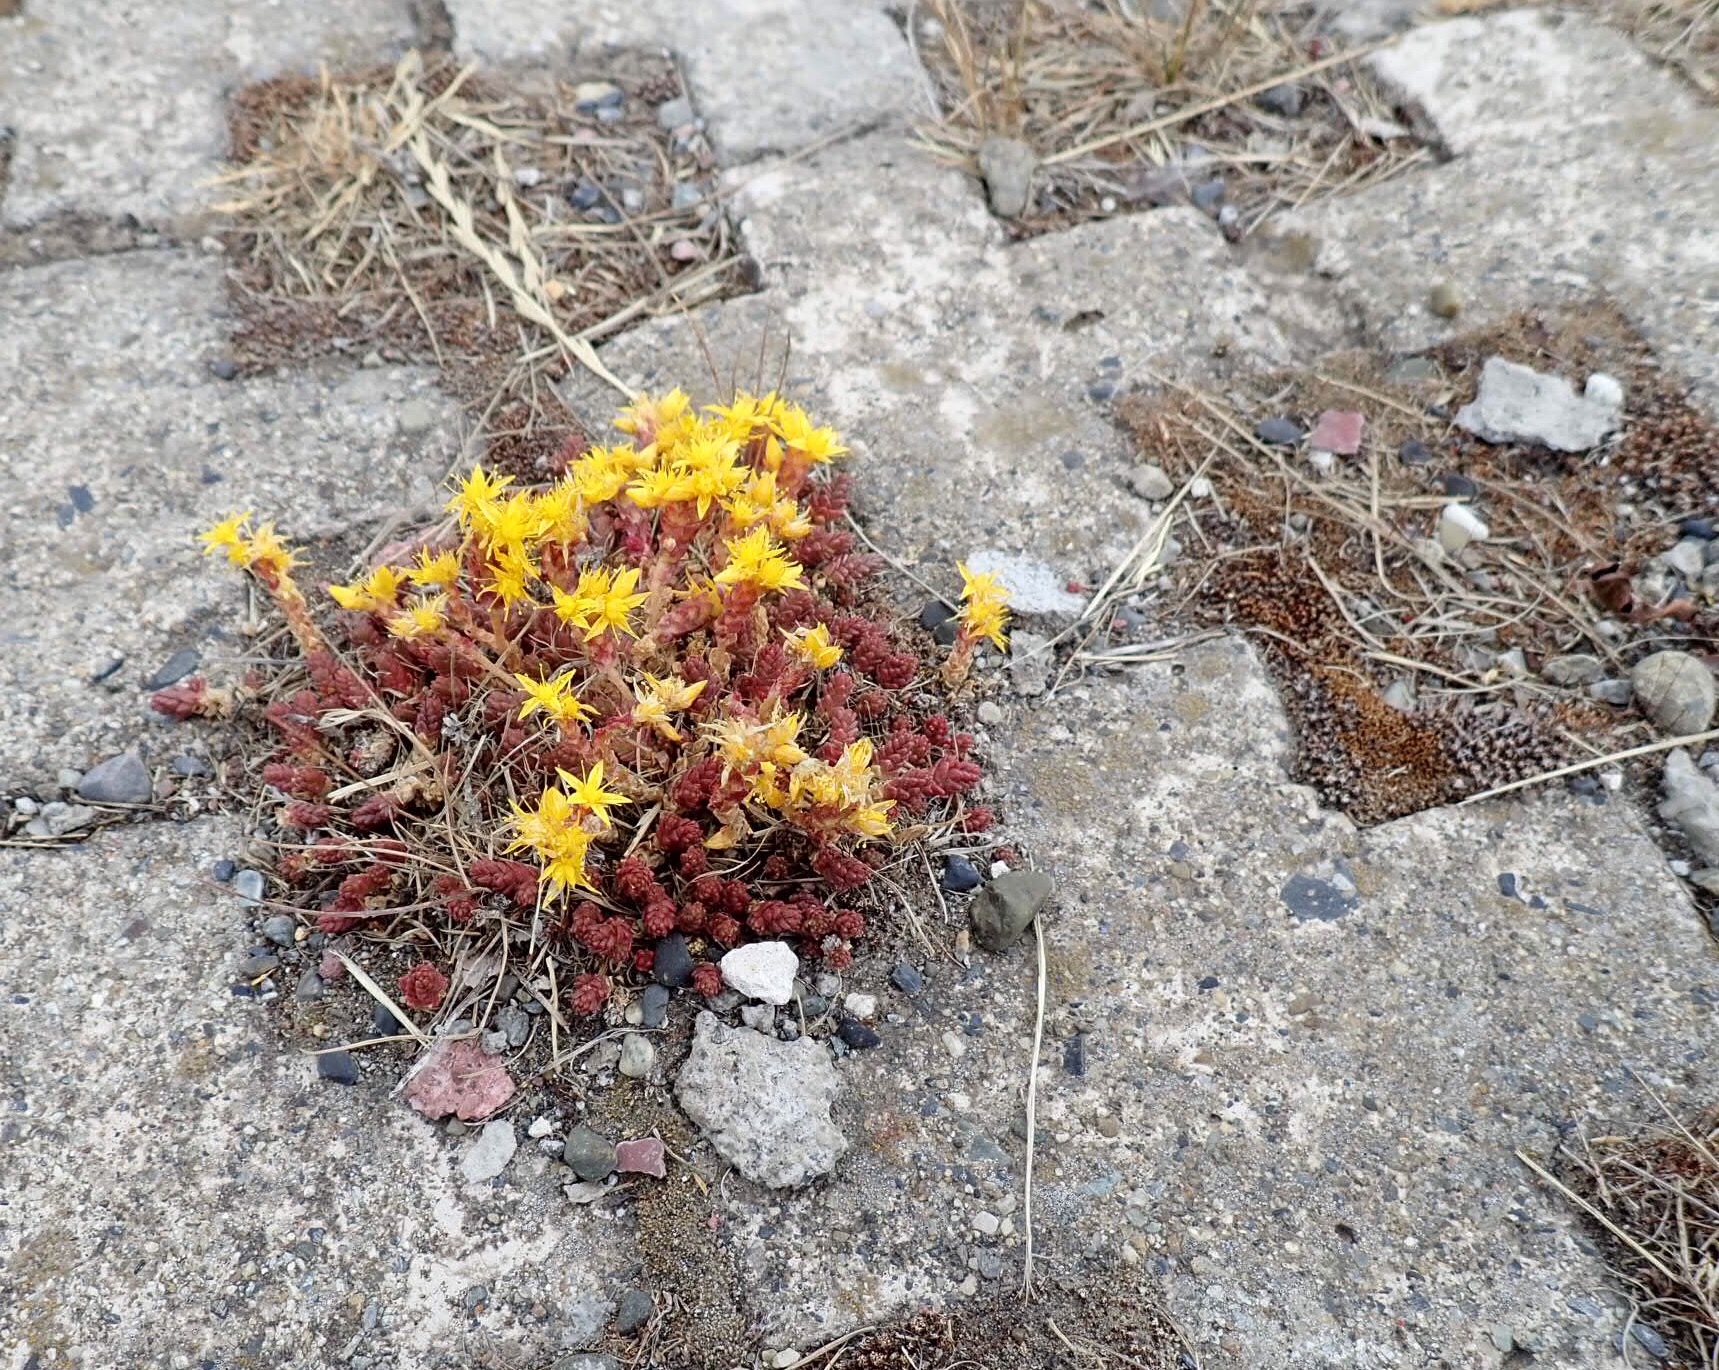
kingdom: Plantae
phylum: Tracheophyta
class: Magnoliopsida
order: Saxifragales
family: Crassulaceae
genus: Sedum
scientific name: Sedum acre
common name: Biting stonecrop
